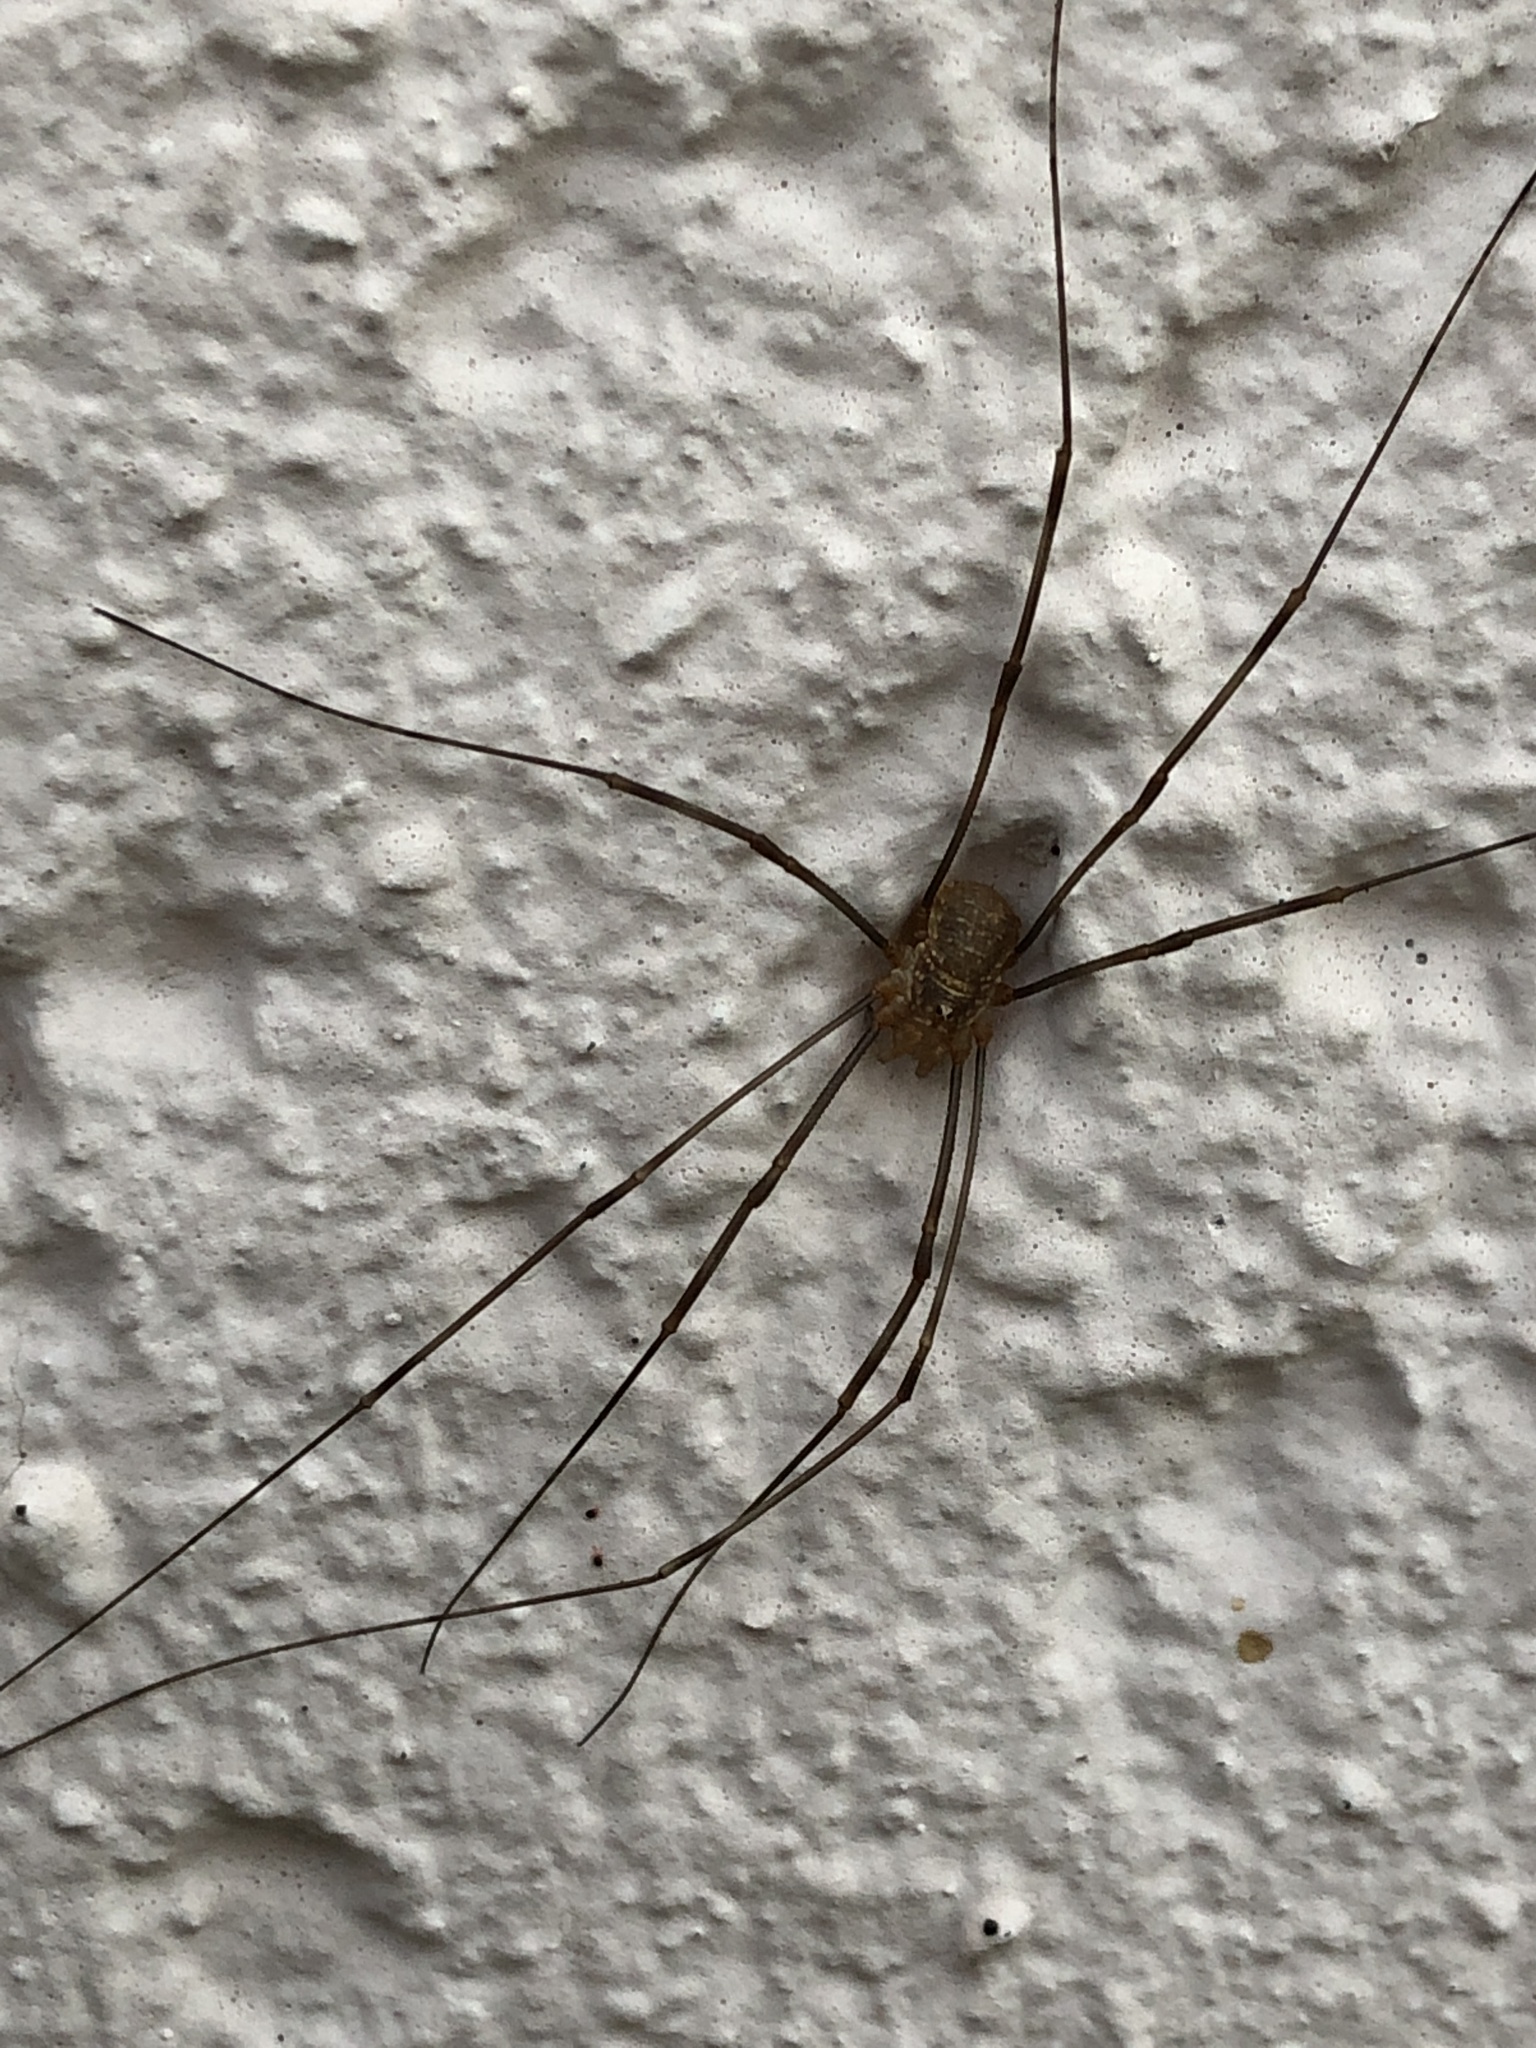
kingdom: Animalia
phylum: Arthropoda
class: Arachnida
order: Opiliones
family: Phalangiidae
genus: Opilio
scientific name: Opilio canestrinii
